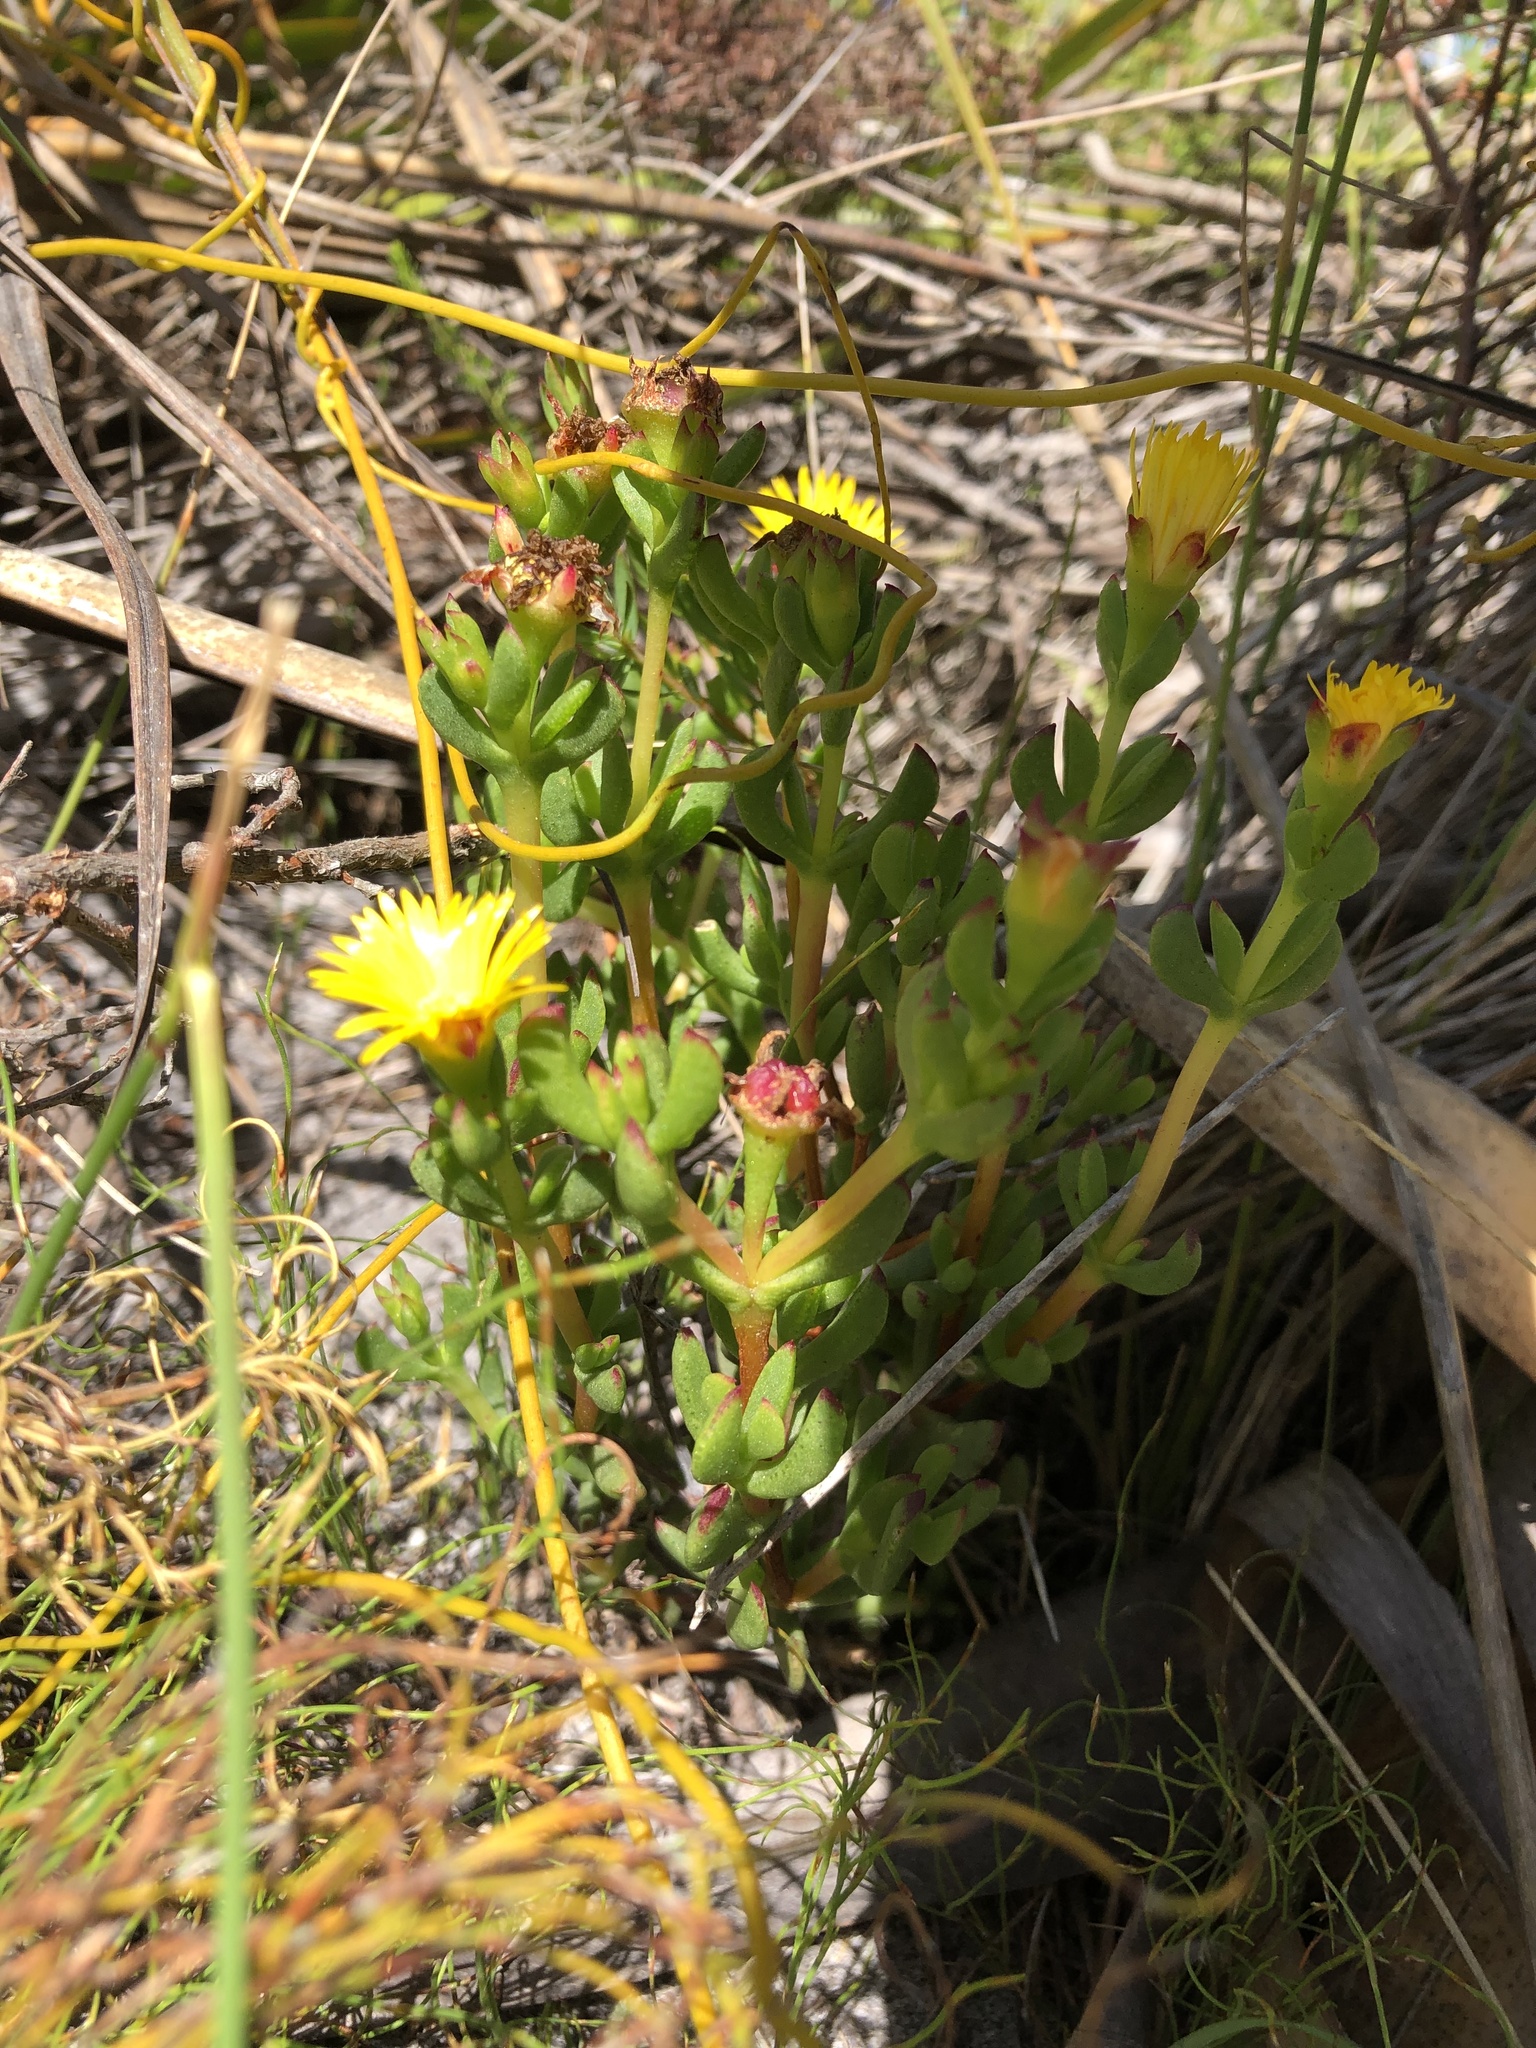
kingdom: Plantae
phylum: Tracheophyta
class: Magnoliopsida
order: Caryophyllales
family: Aizoaceae
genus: Lampranthus
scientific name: Lampranthus promontorii
